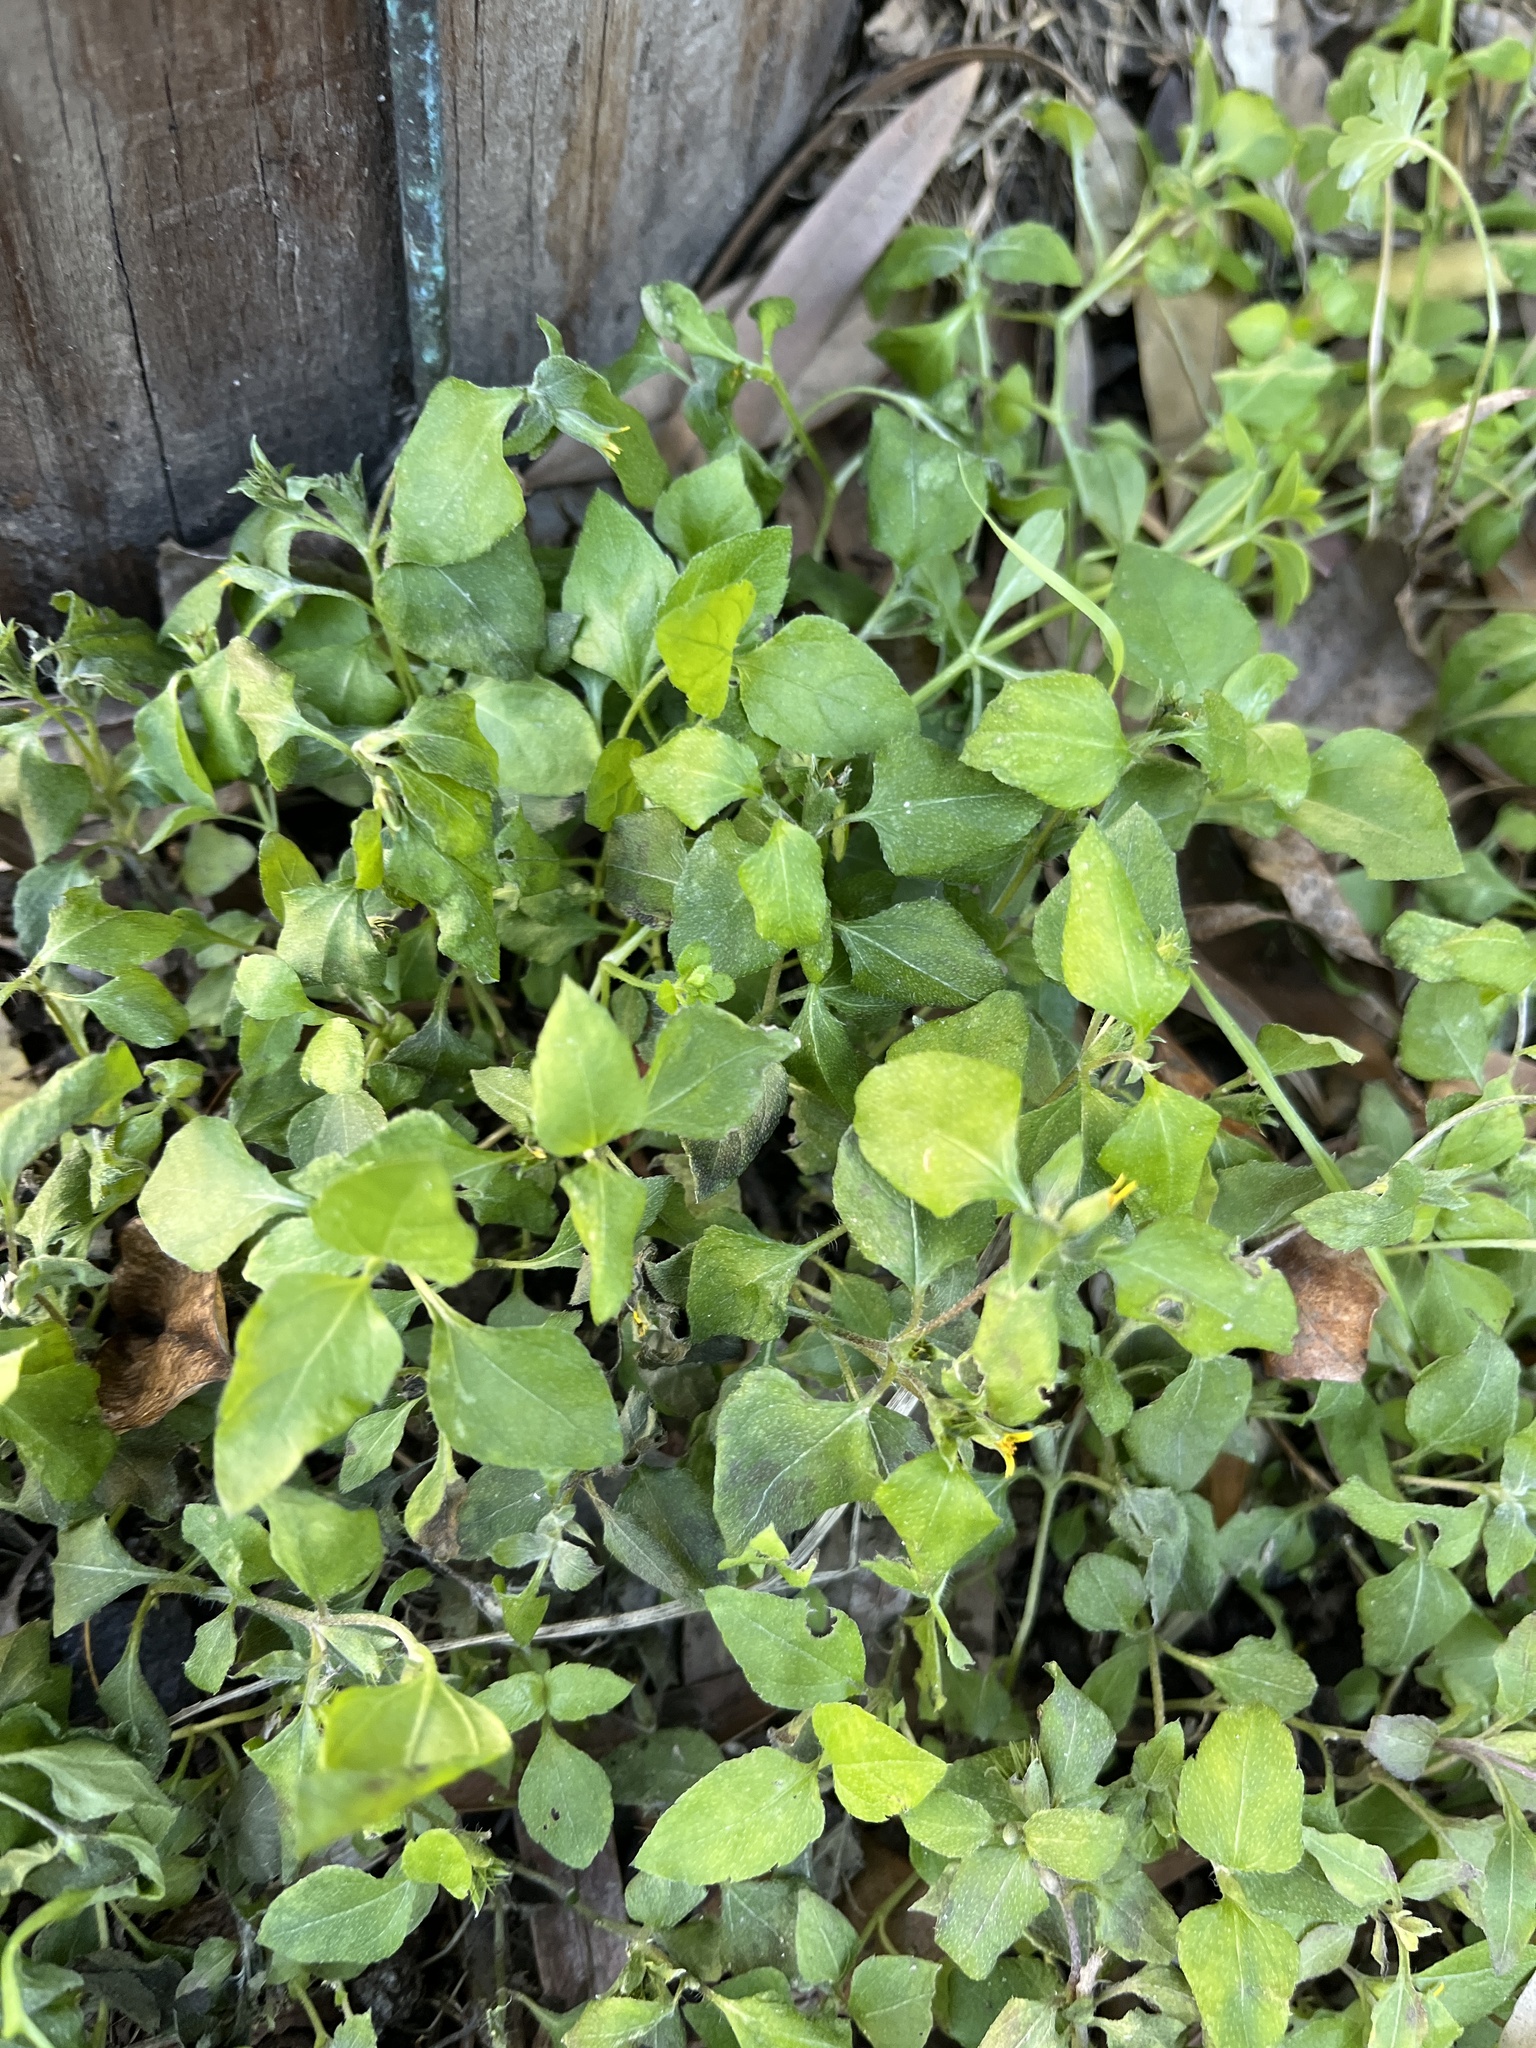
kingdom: Plantae
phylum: Tracheophyta
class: Magnoliopsida
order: Asterales
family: Asteraceae
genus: Calyptocarpus
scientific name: Calyptocarpus vialis
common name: Straggler daisy
